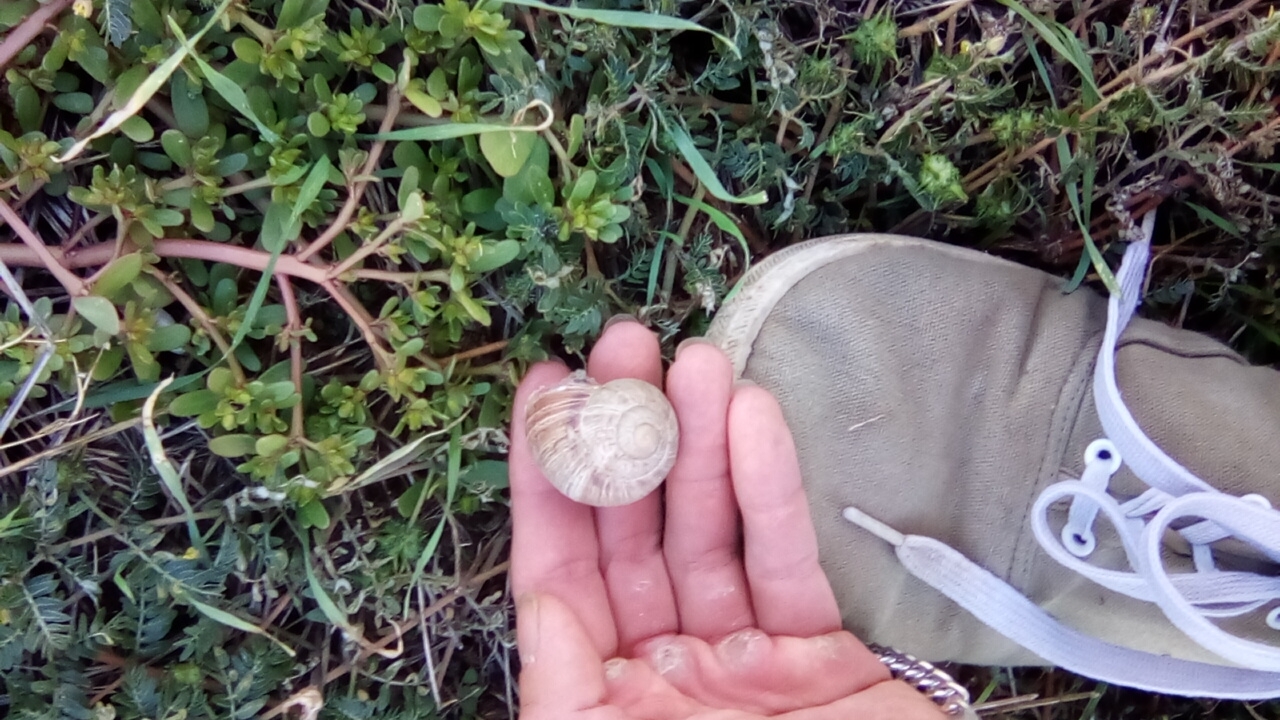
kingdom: Animalia
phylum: Mollusca
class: Gastropoda
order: Stylommatophora
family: Helicidae
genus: Helix
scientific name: Helix albescens
